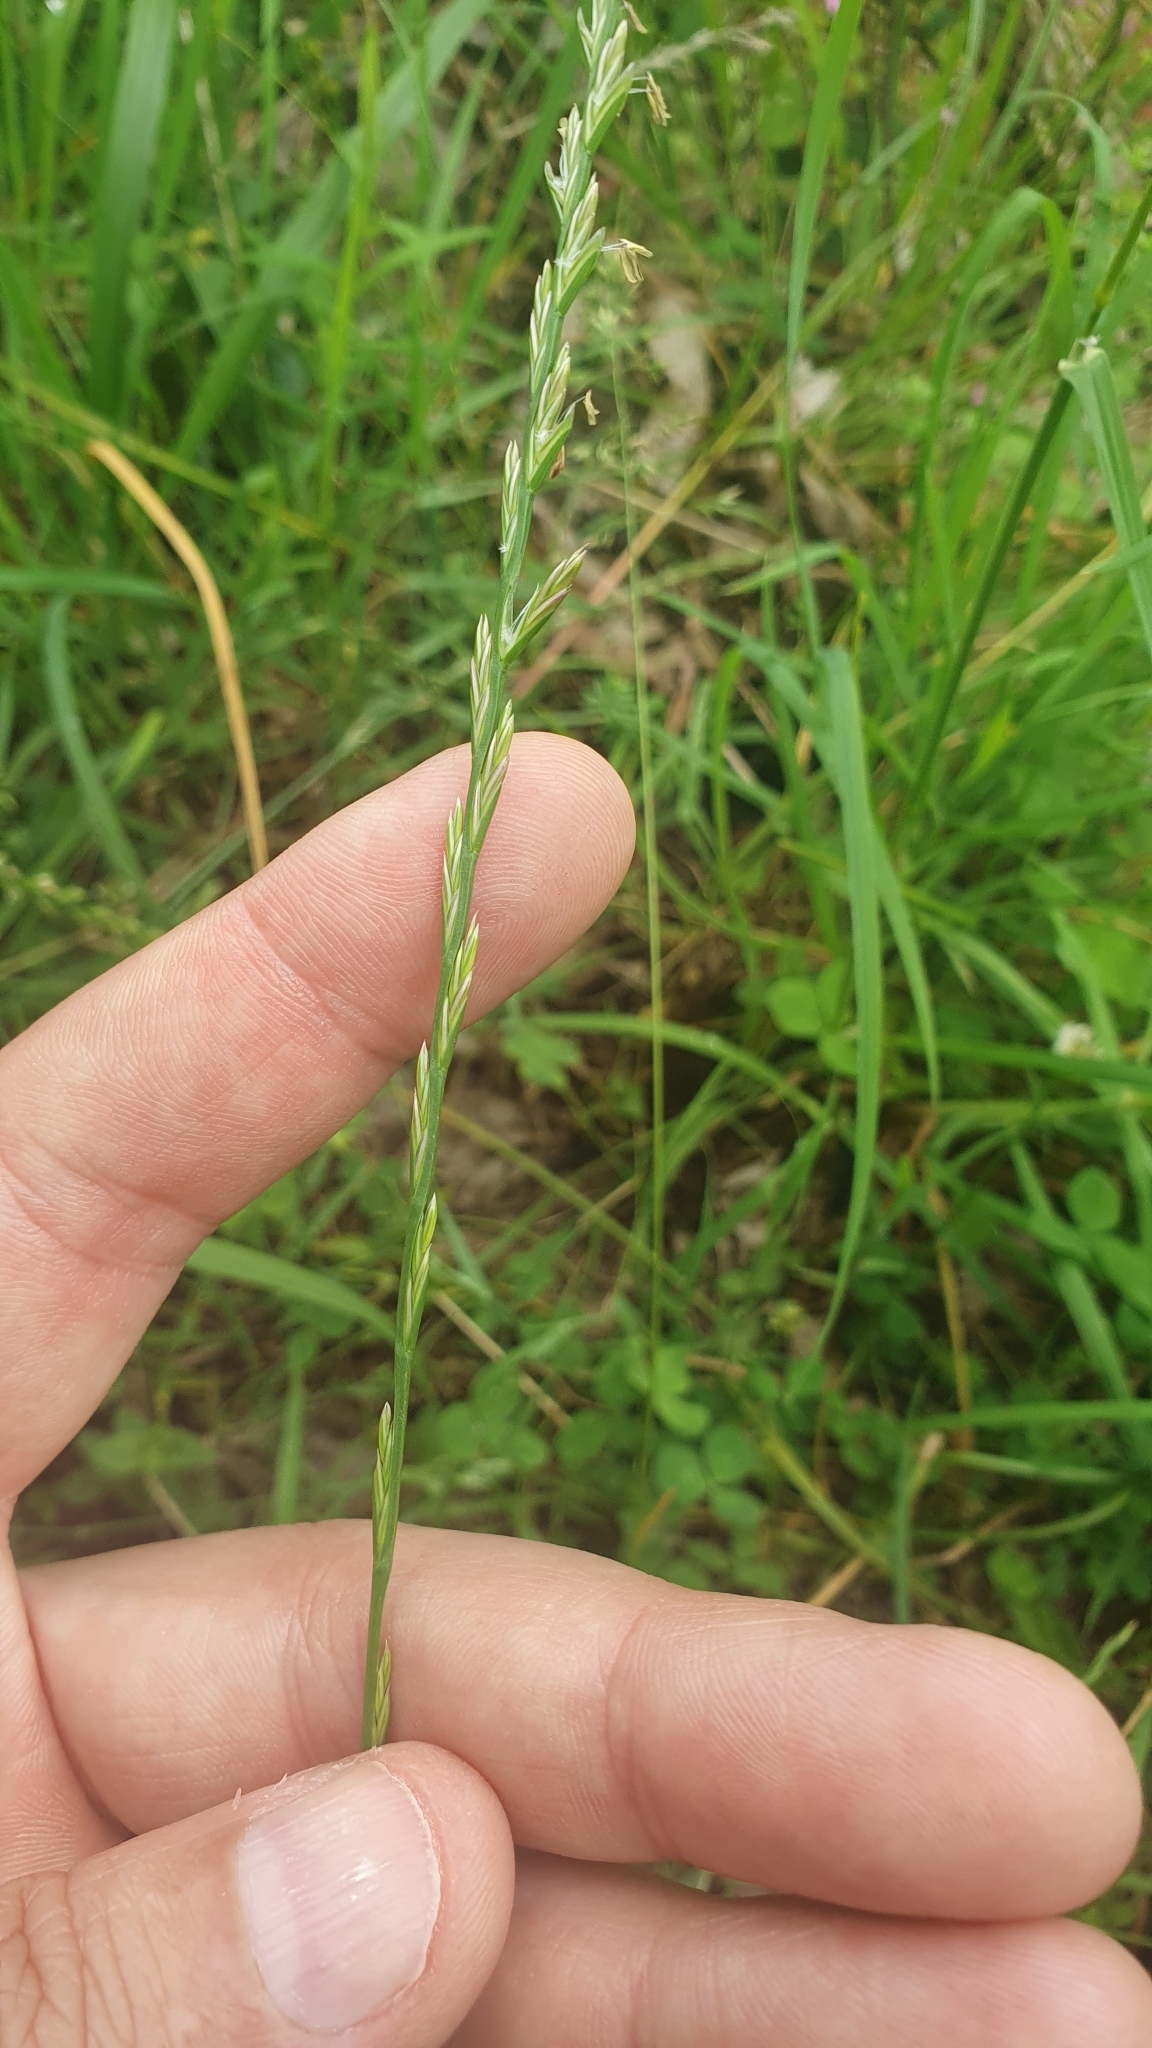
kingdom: Plantae
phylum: Tracheophyta
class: Liliopsida
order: Poales
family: Poaceae
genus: Lolium
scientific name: Lolium perenne
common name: Perennial ryegrass
